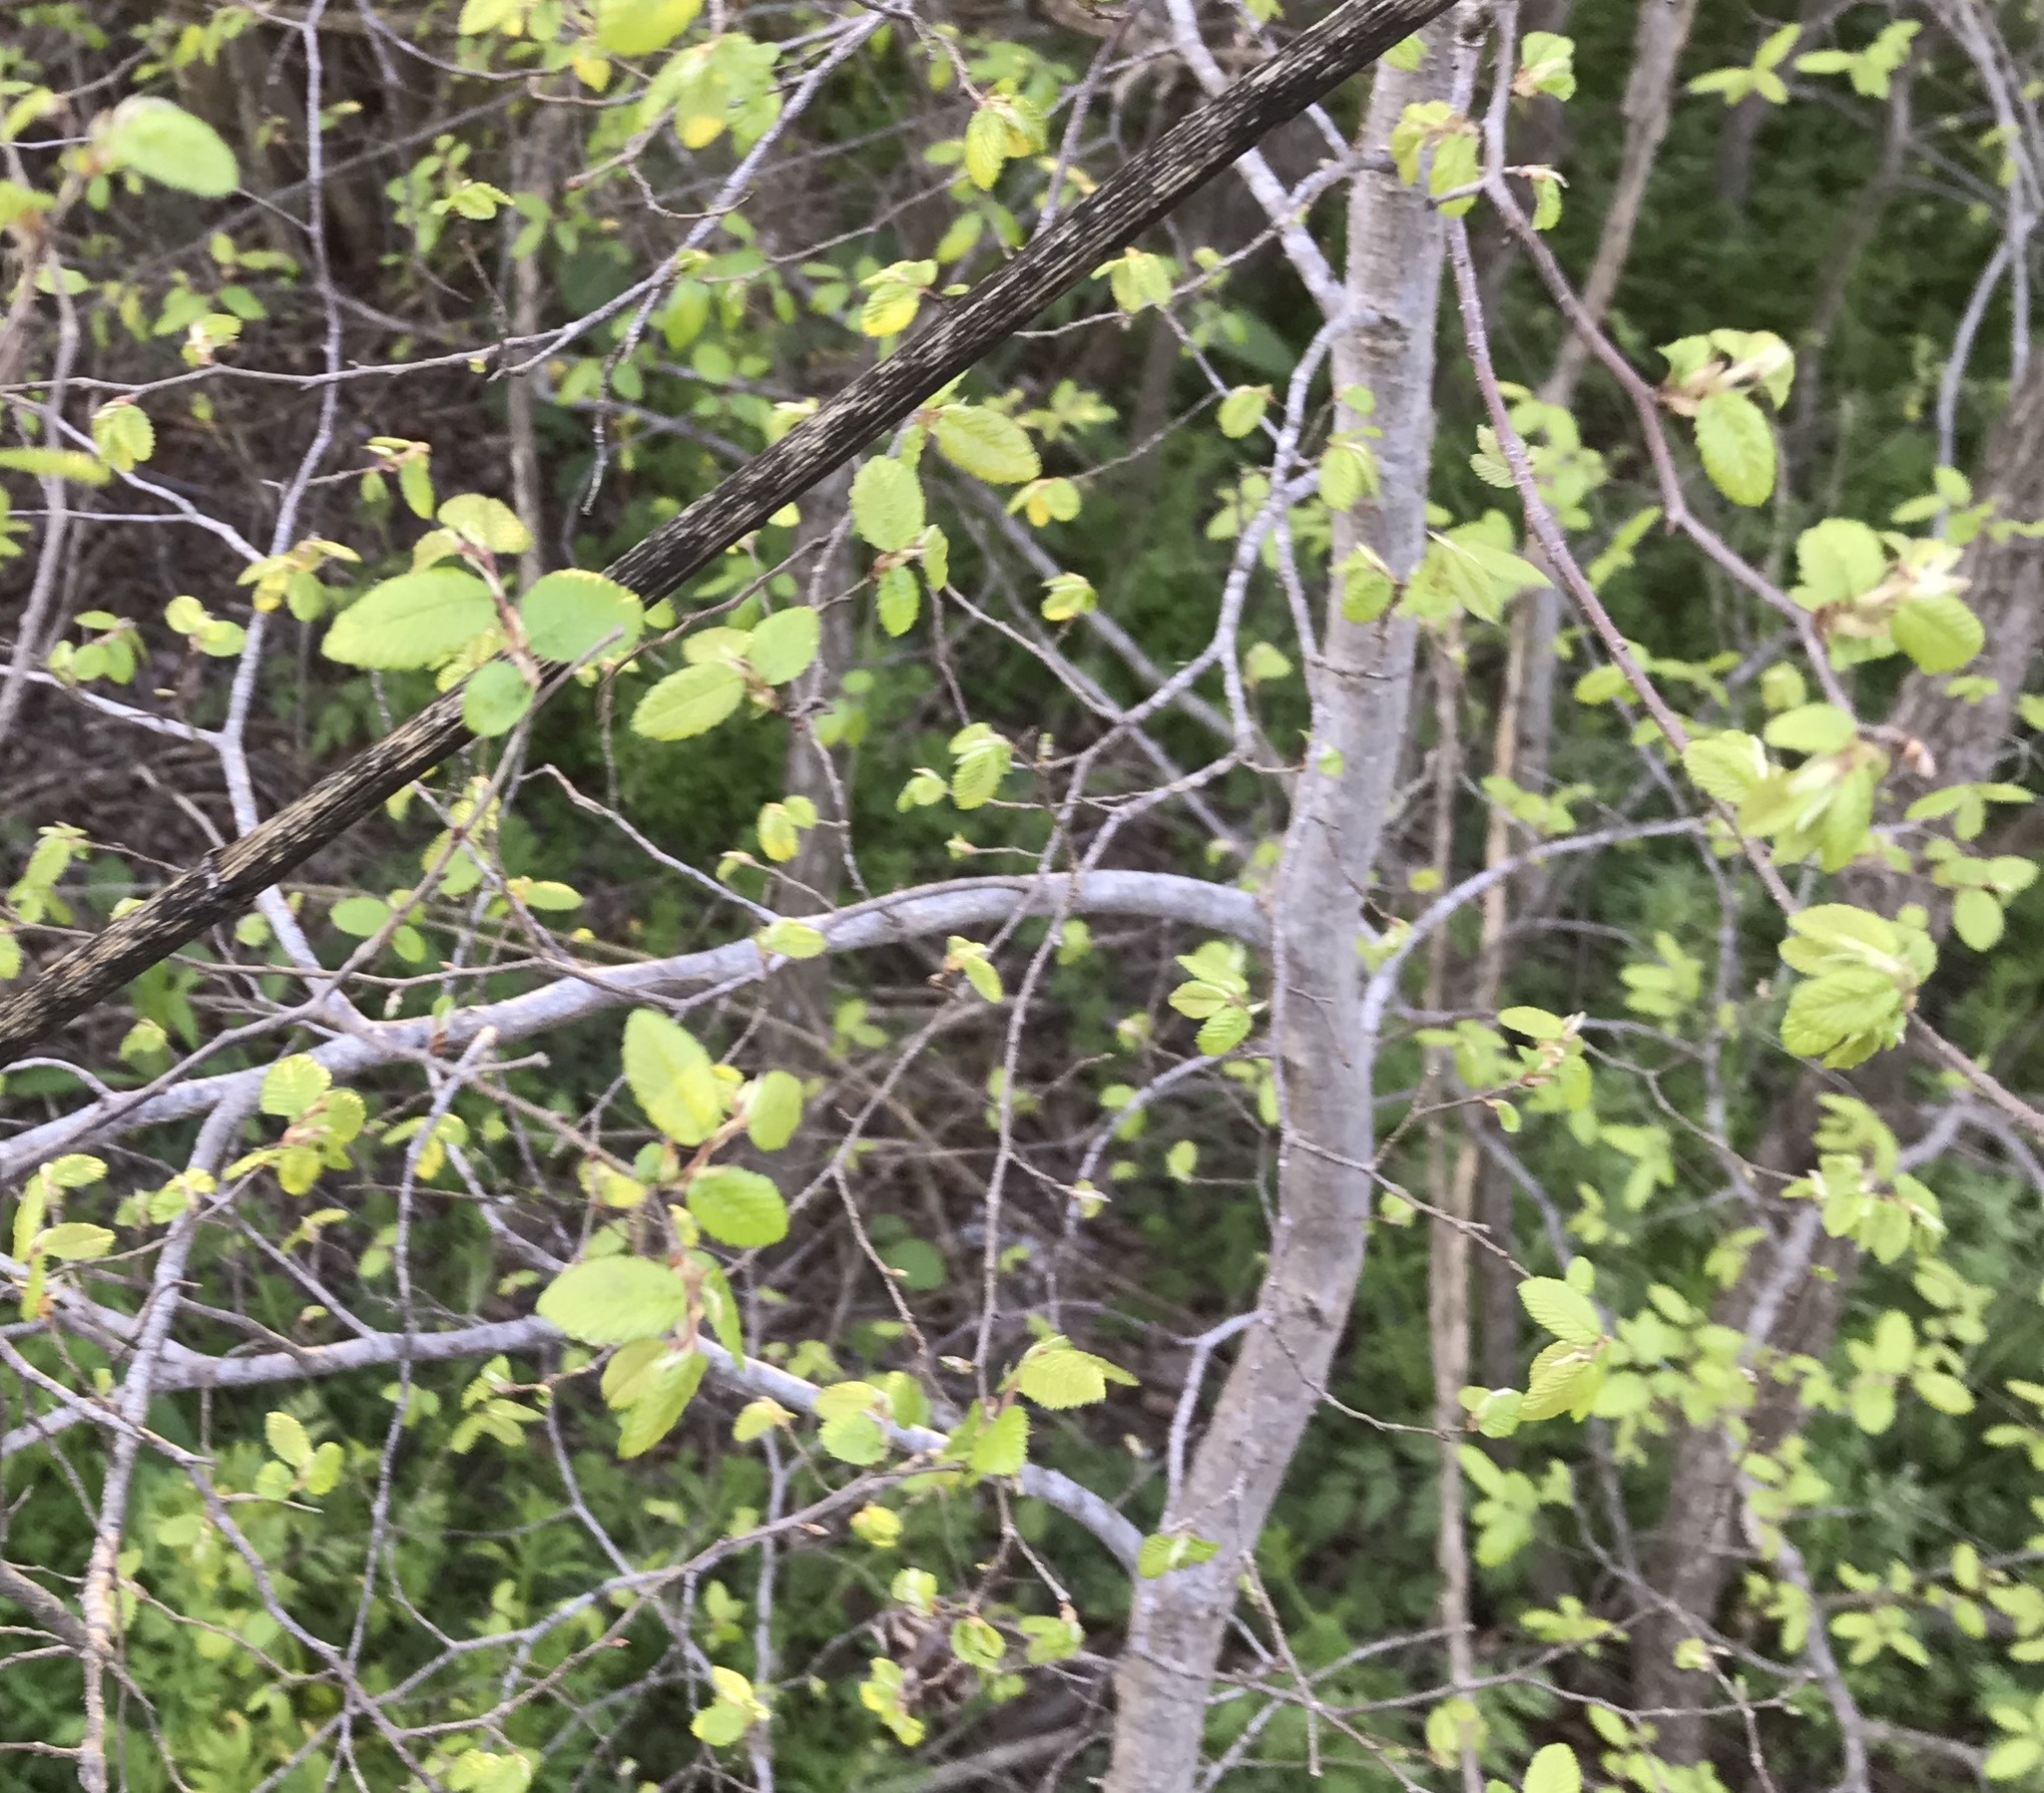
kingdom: Plantae
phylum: Tracheophyta
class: Magnoliopsida
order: Rosales
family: Ulmaceae
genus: Ulmus
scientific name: Ulmus crassifolia
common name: Basket elm
